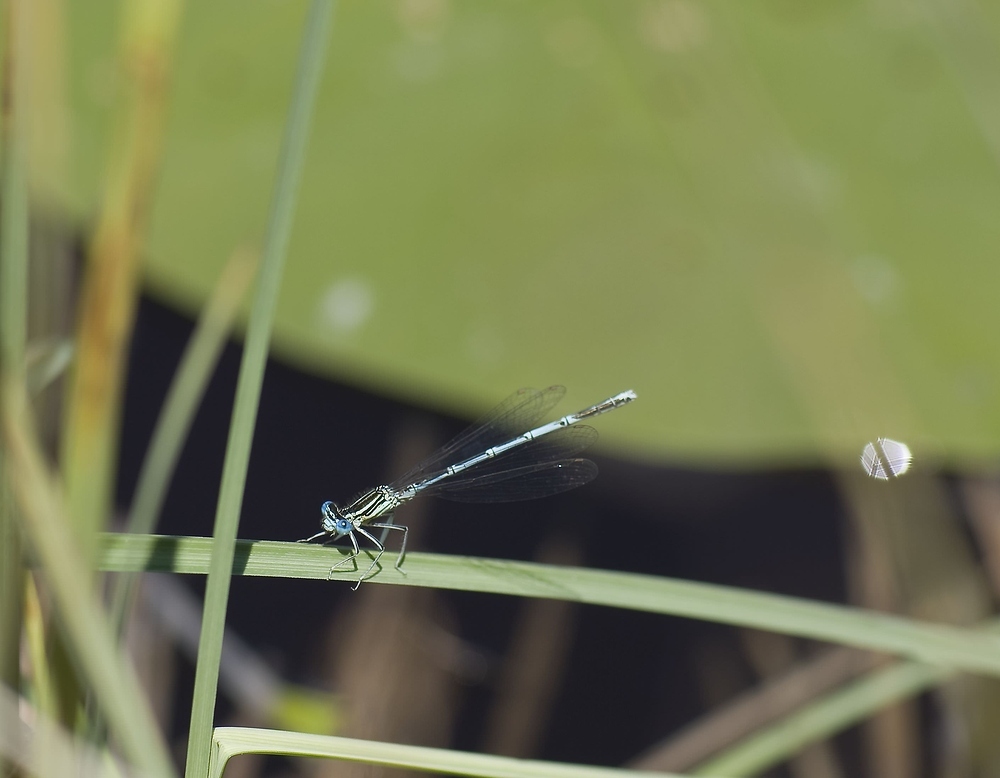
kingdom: Animalia
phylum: Arthropoda
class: Insecta
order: Odonata
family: Platycnemididae
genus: Platycnemis
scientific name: Platycnemis pennipes
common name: White-legged damselfly
